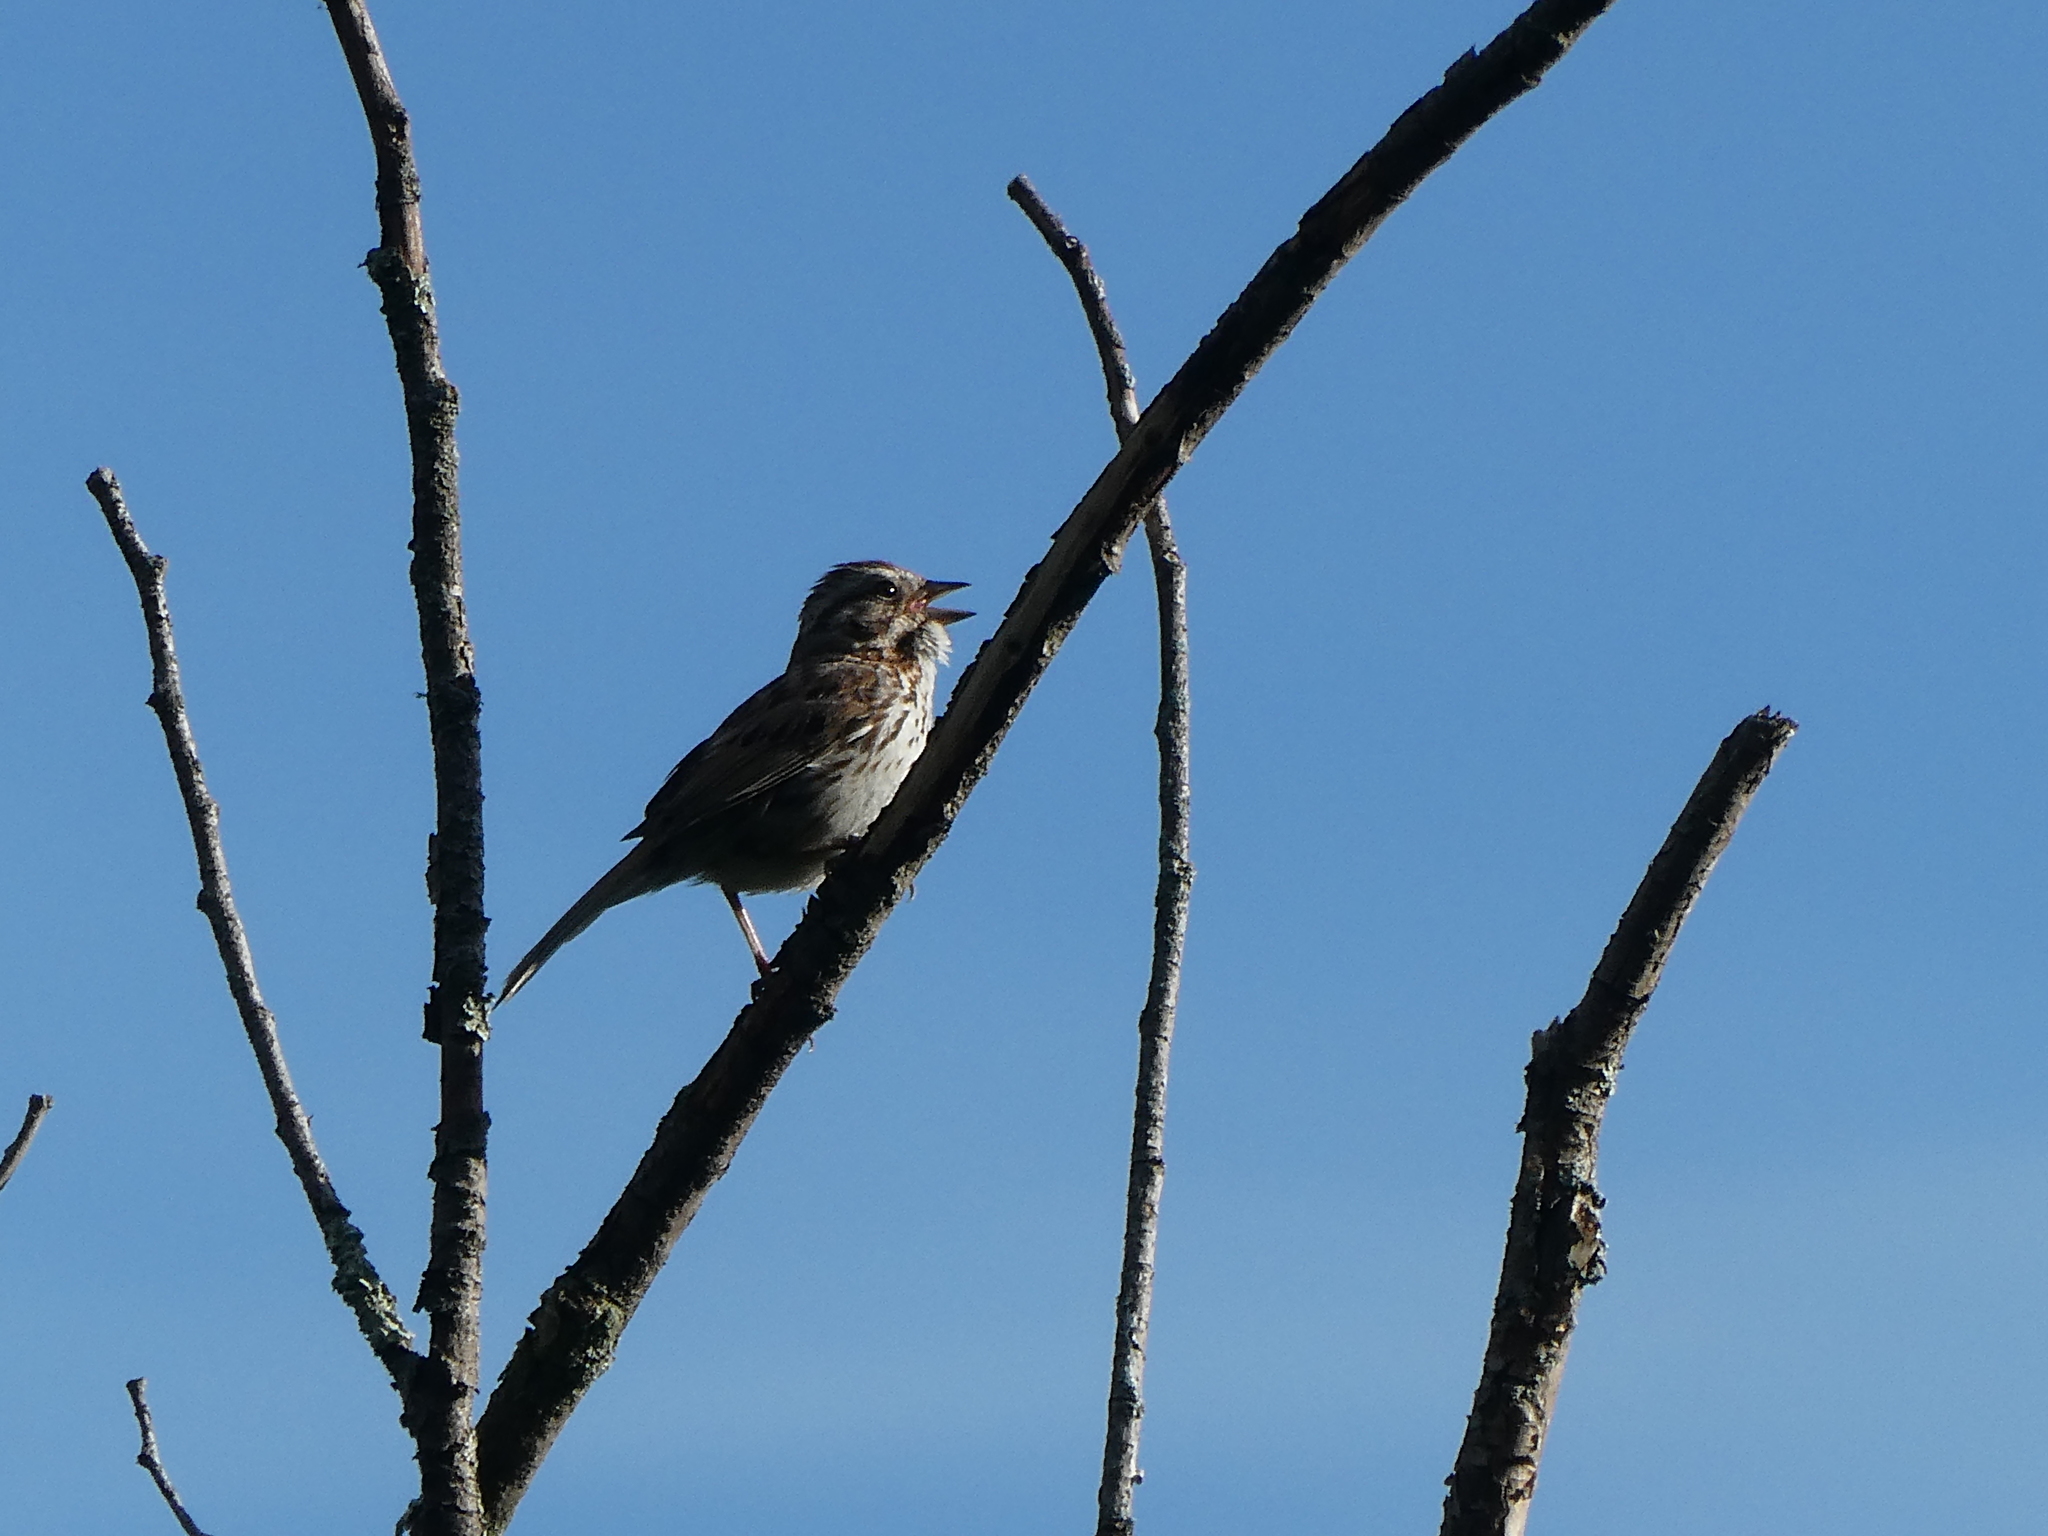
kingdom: Animalia
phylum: Chordata
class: Aves
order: Passeriformes
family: Passerellidae
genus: Melospiza
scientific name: Melospiza melodia
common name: Song sparrow
